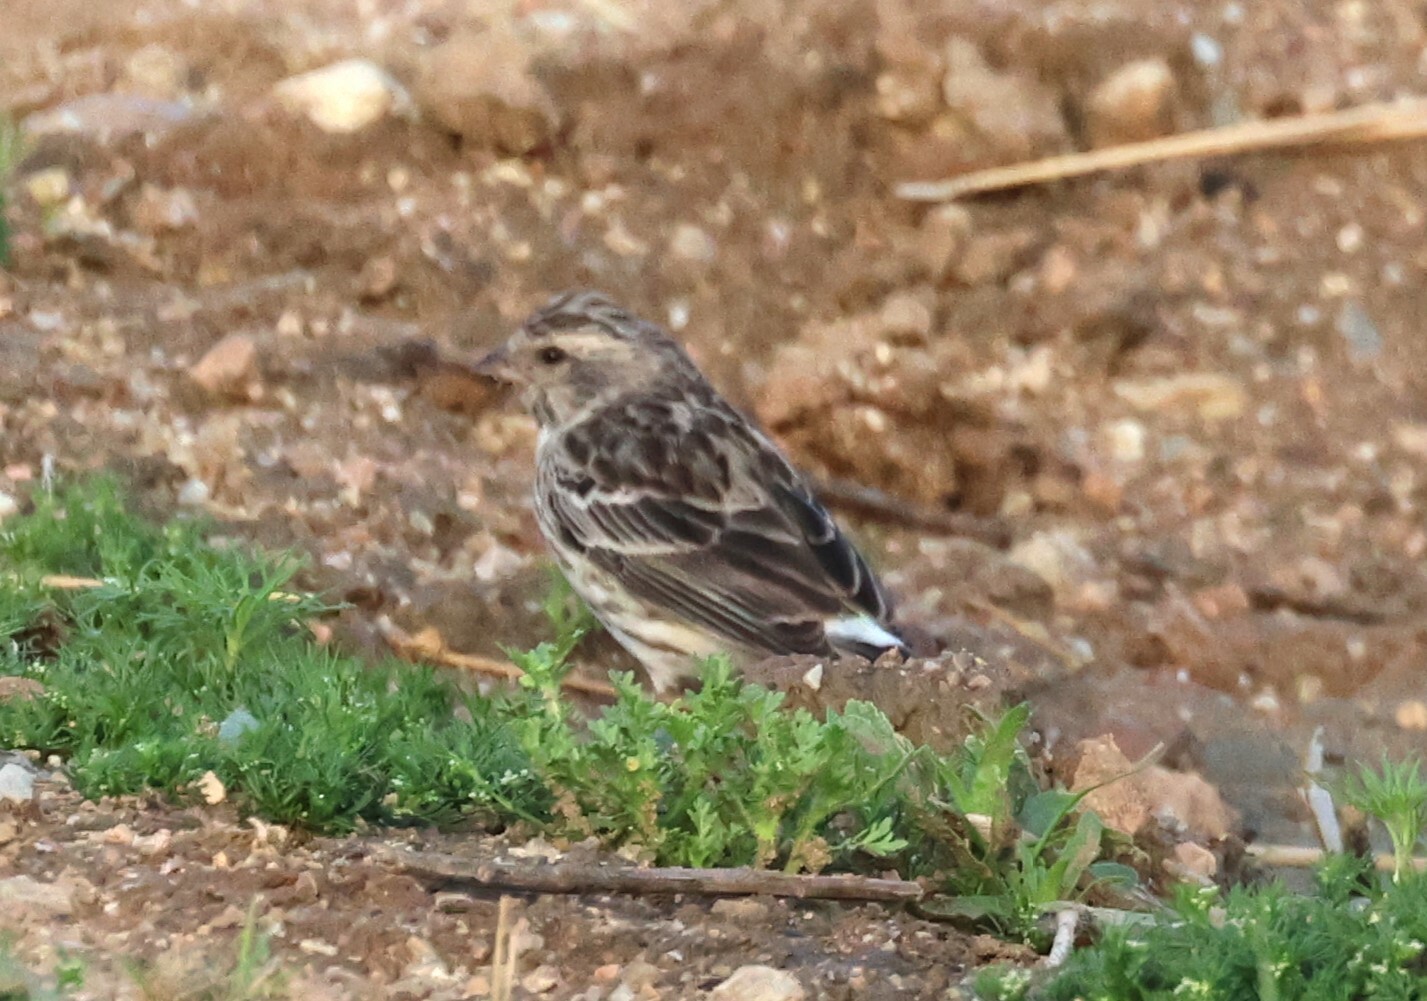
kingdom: Animalia
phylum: Chordata
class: Aves
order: Passeriformes
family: Fringillidae
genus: Crithagra
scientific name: Crithagra atrogularis
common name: Black-throated canary
